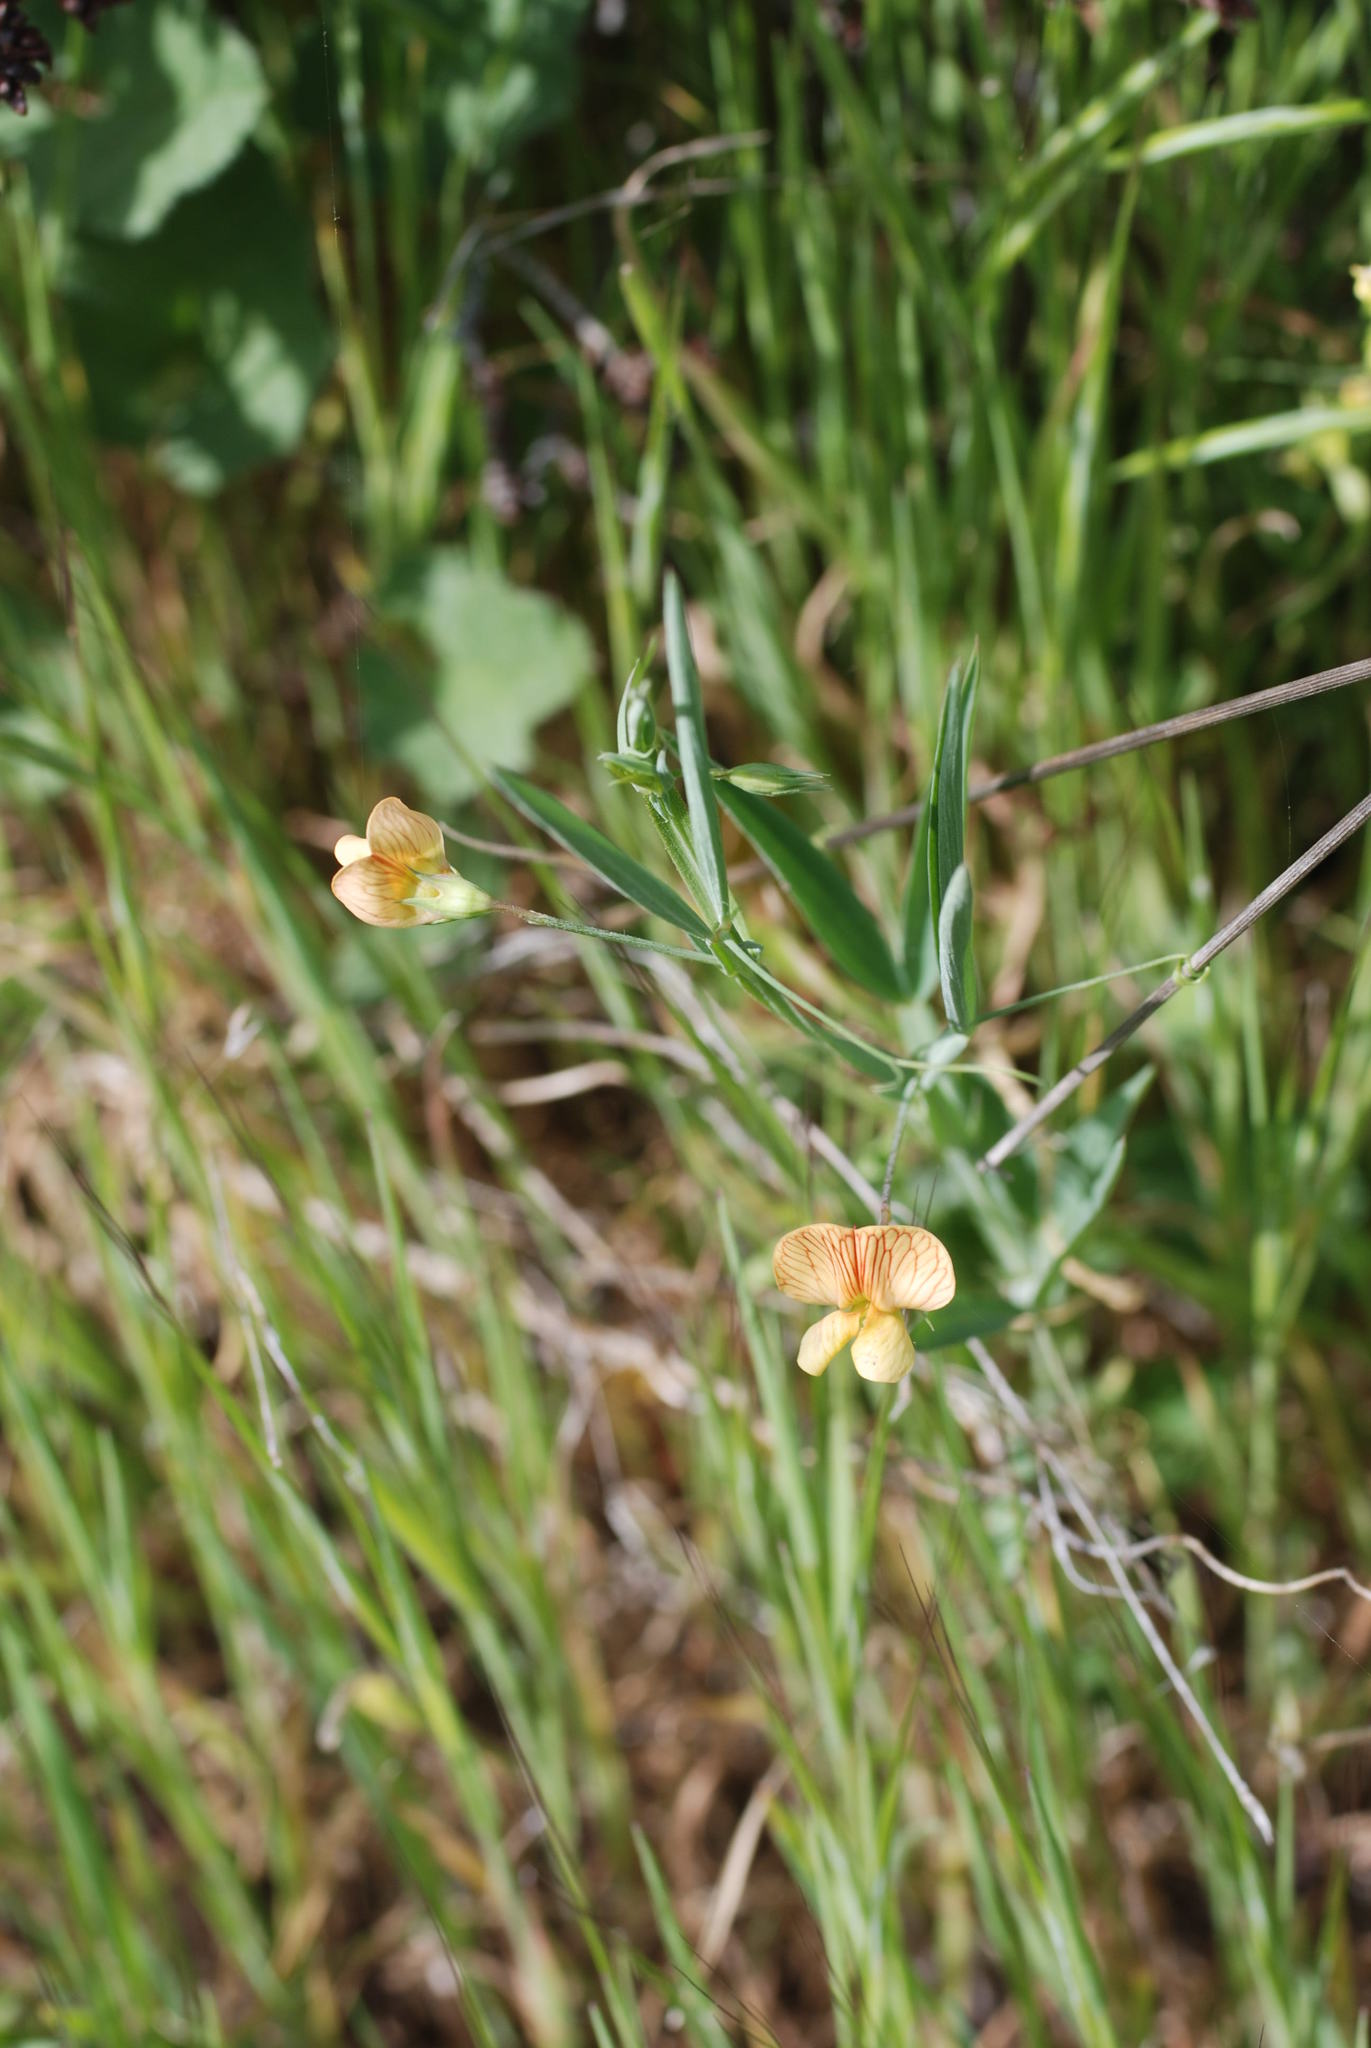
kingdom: Plantae
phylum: Tracheophyta
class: Magnoliopsida
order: Fabales
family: Fabaceae
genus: Lathyrus
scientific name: Lathyrus annuus
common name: Fodder pea
